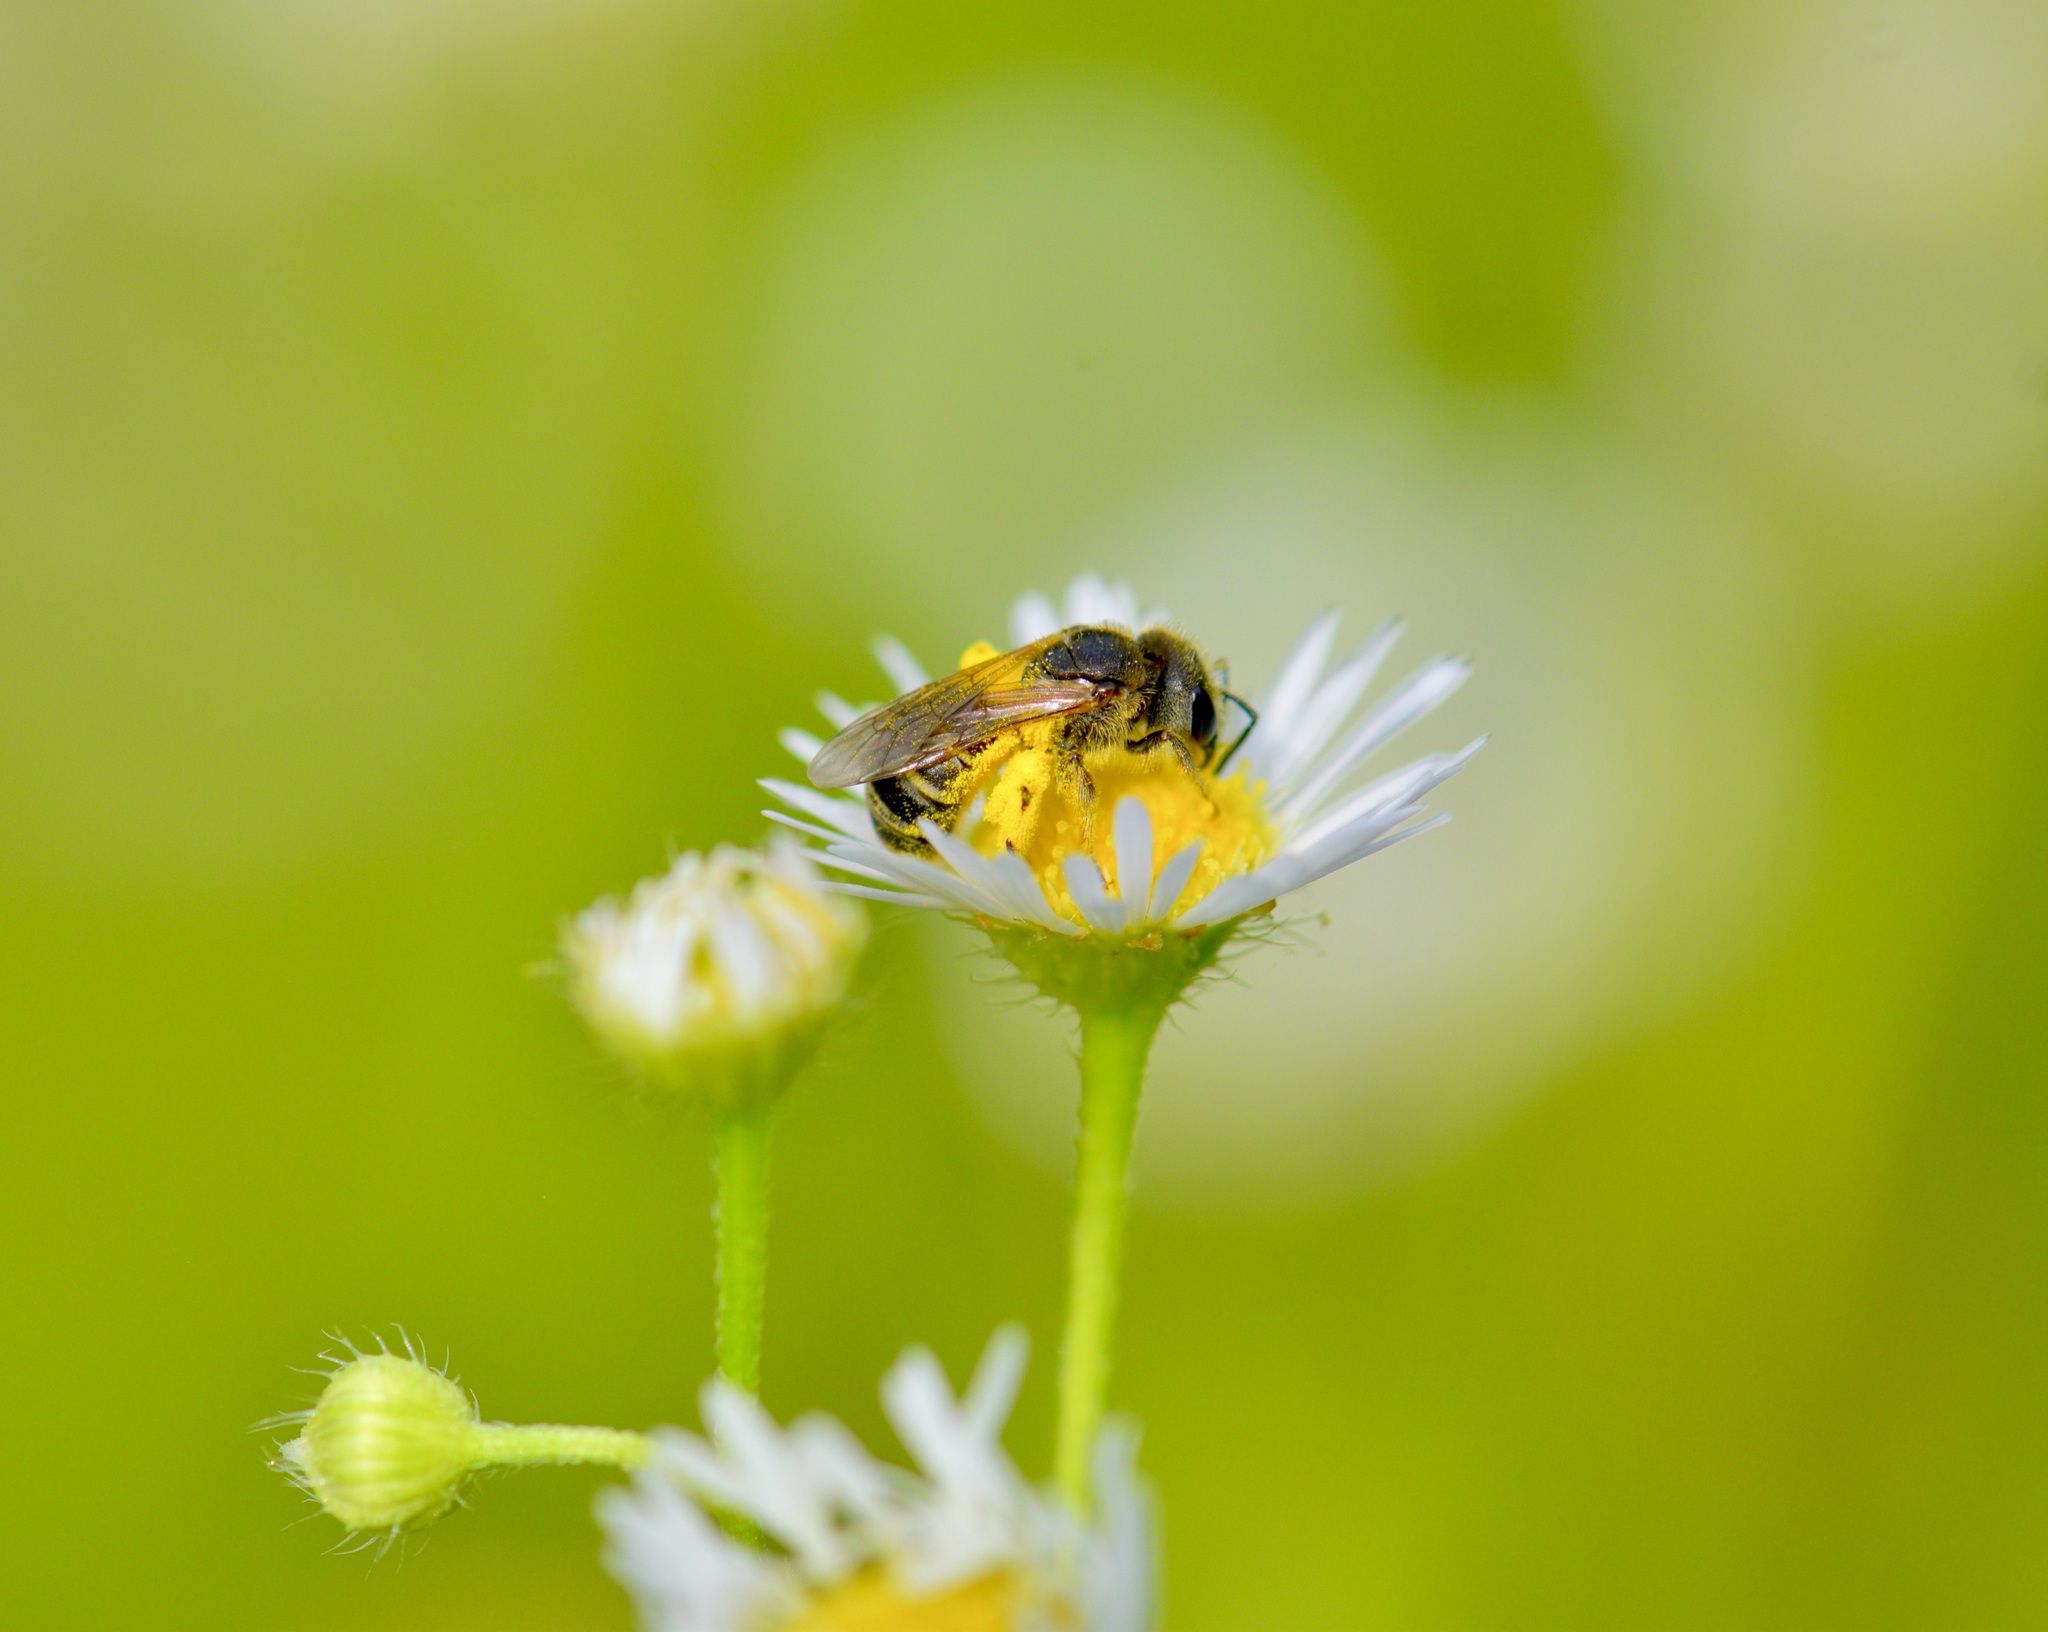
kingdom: Animalia
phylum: Arthropoda
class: Insecta
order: Hymenoptera
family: Halictidae
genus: Halictus
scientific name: Halictus ligatus
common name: Ligated furrow bee
